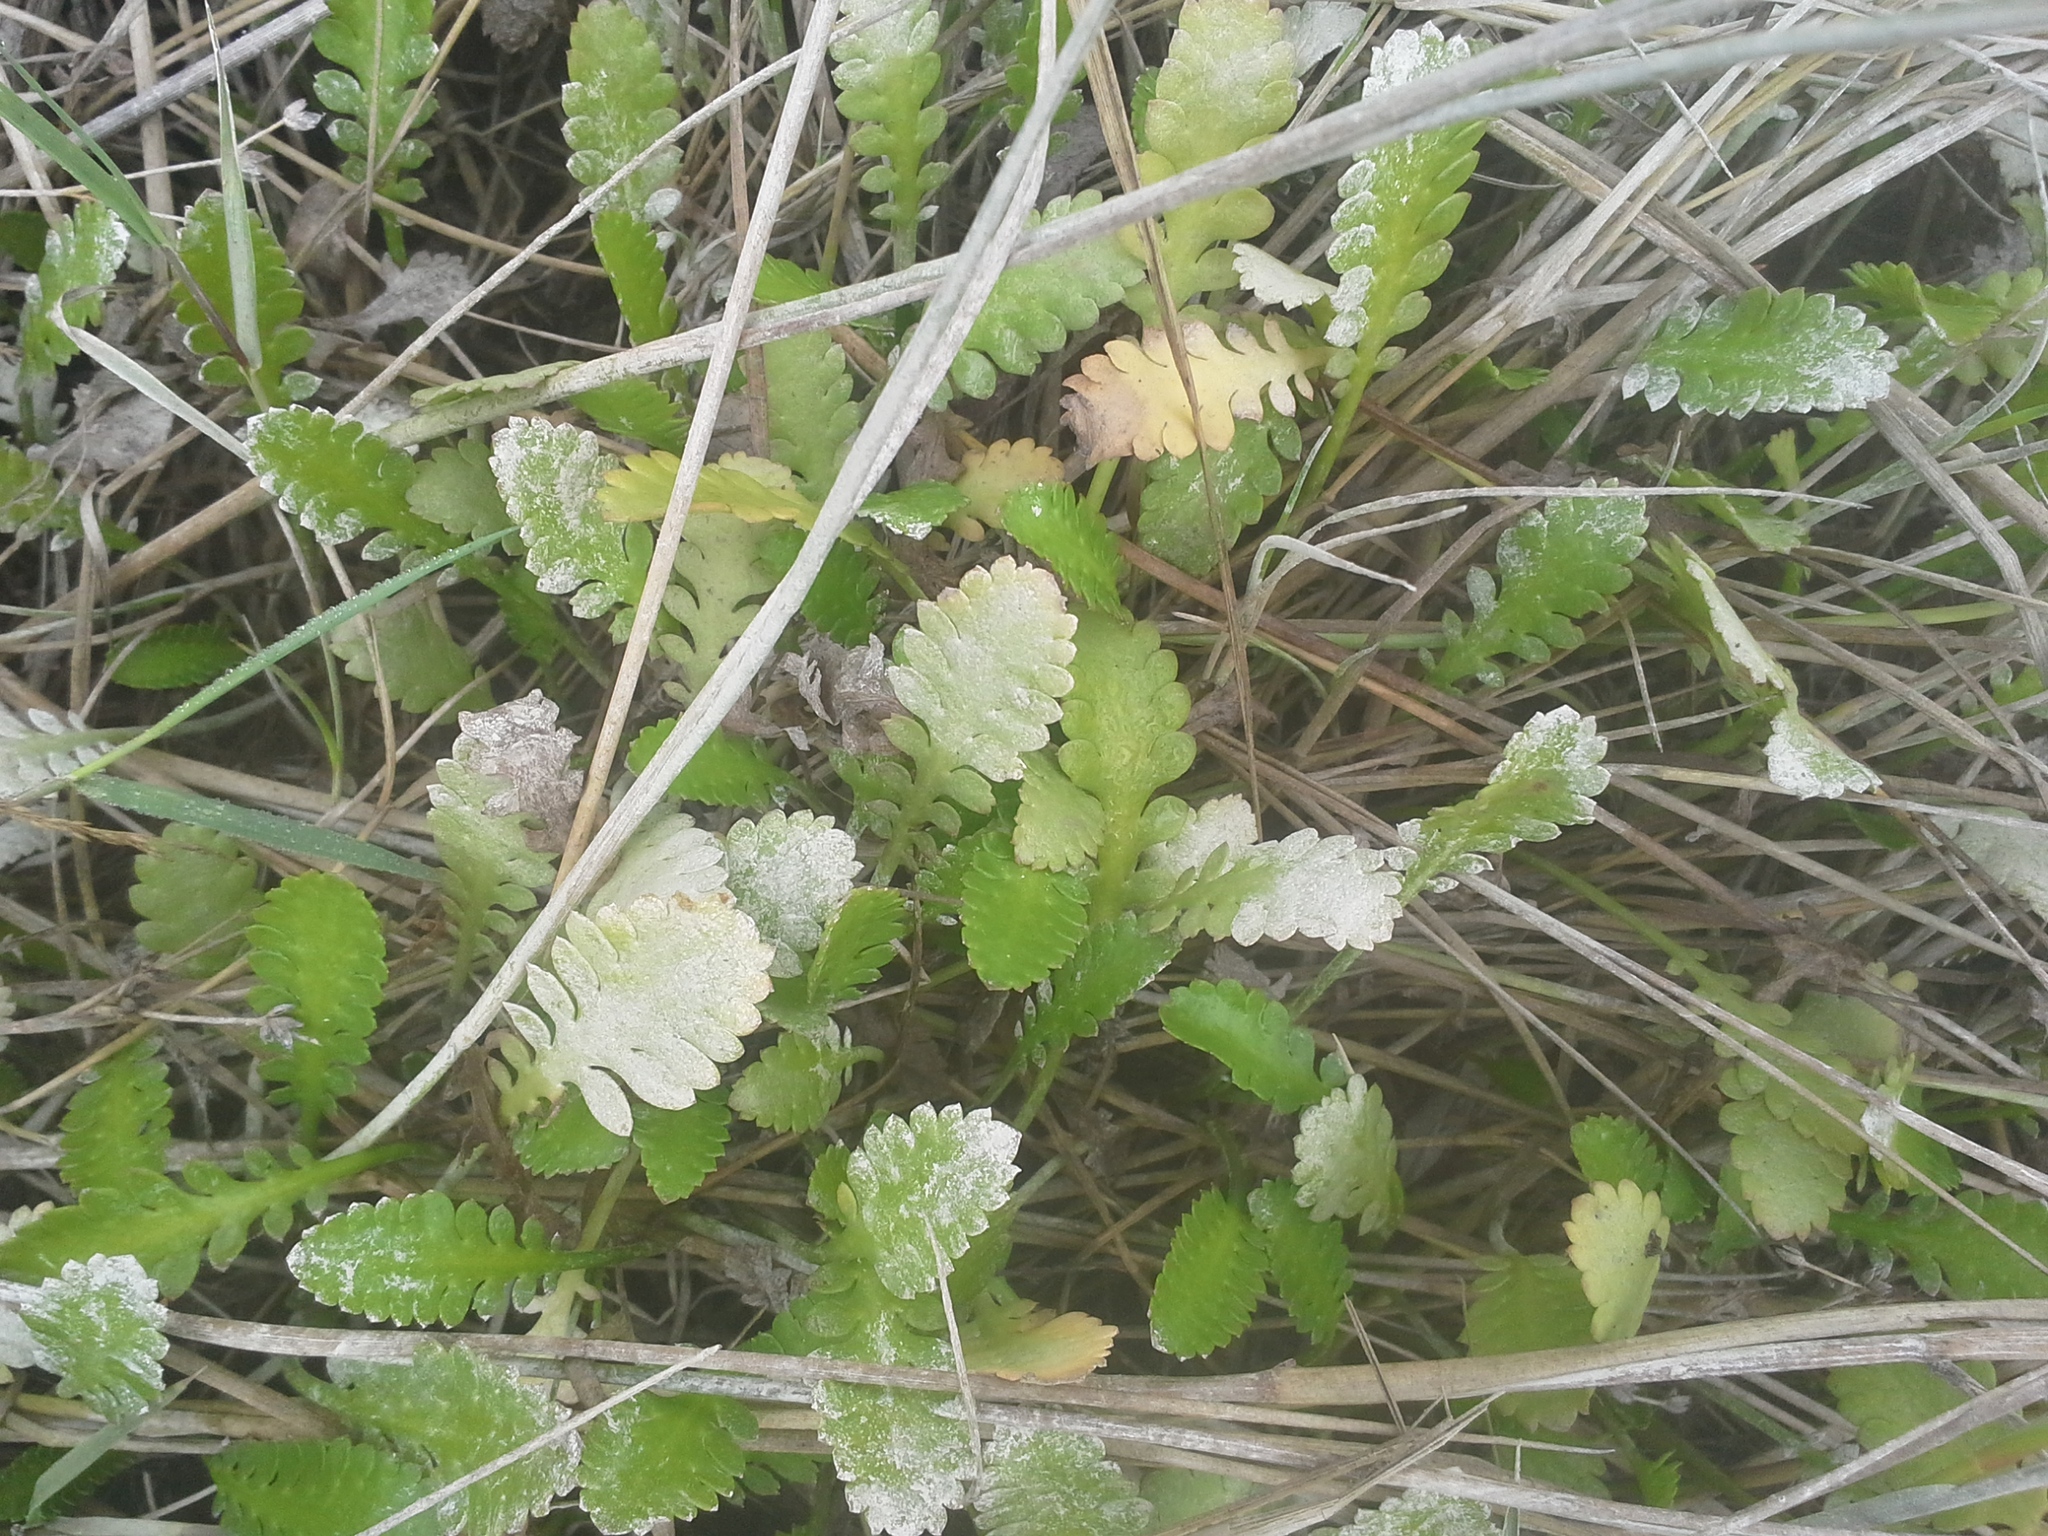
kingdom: Plantae
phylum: Tracheophyta
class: Magnoliopsida
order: Asterales
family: Asteraceae
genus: Leptinella
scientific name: Leptinella dioica
